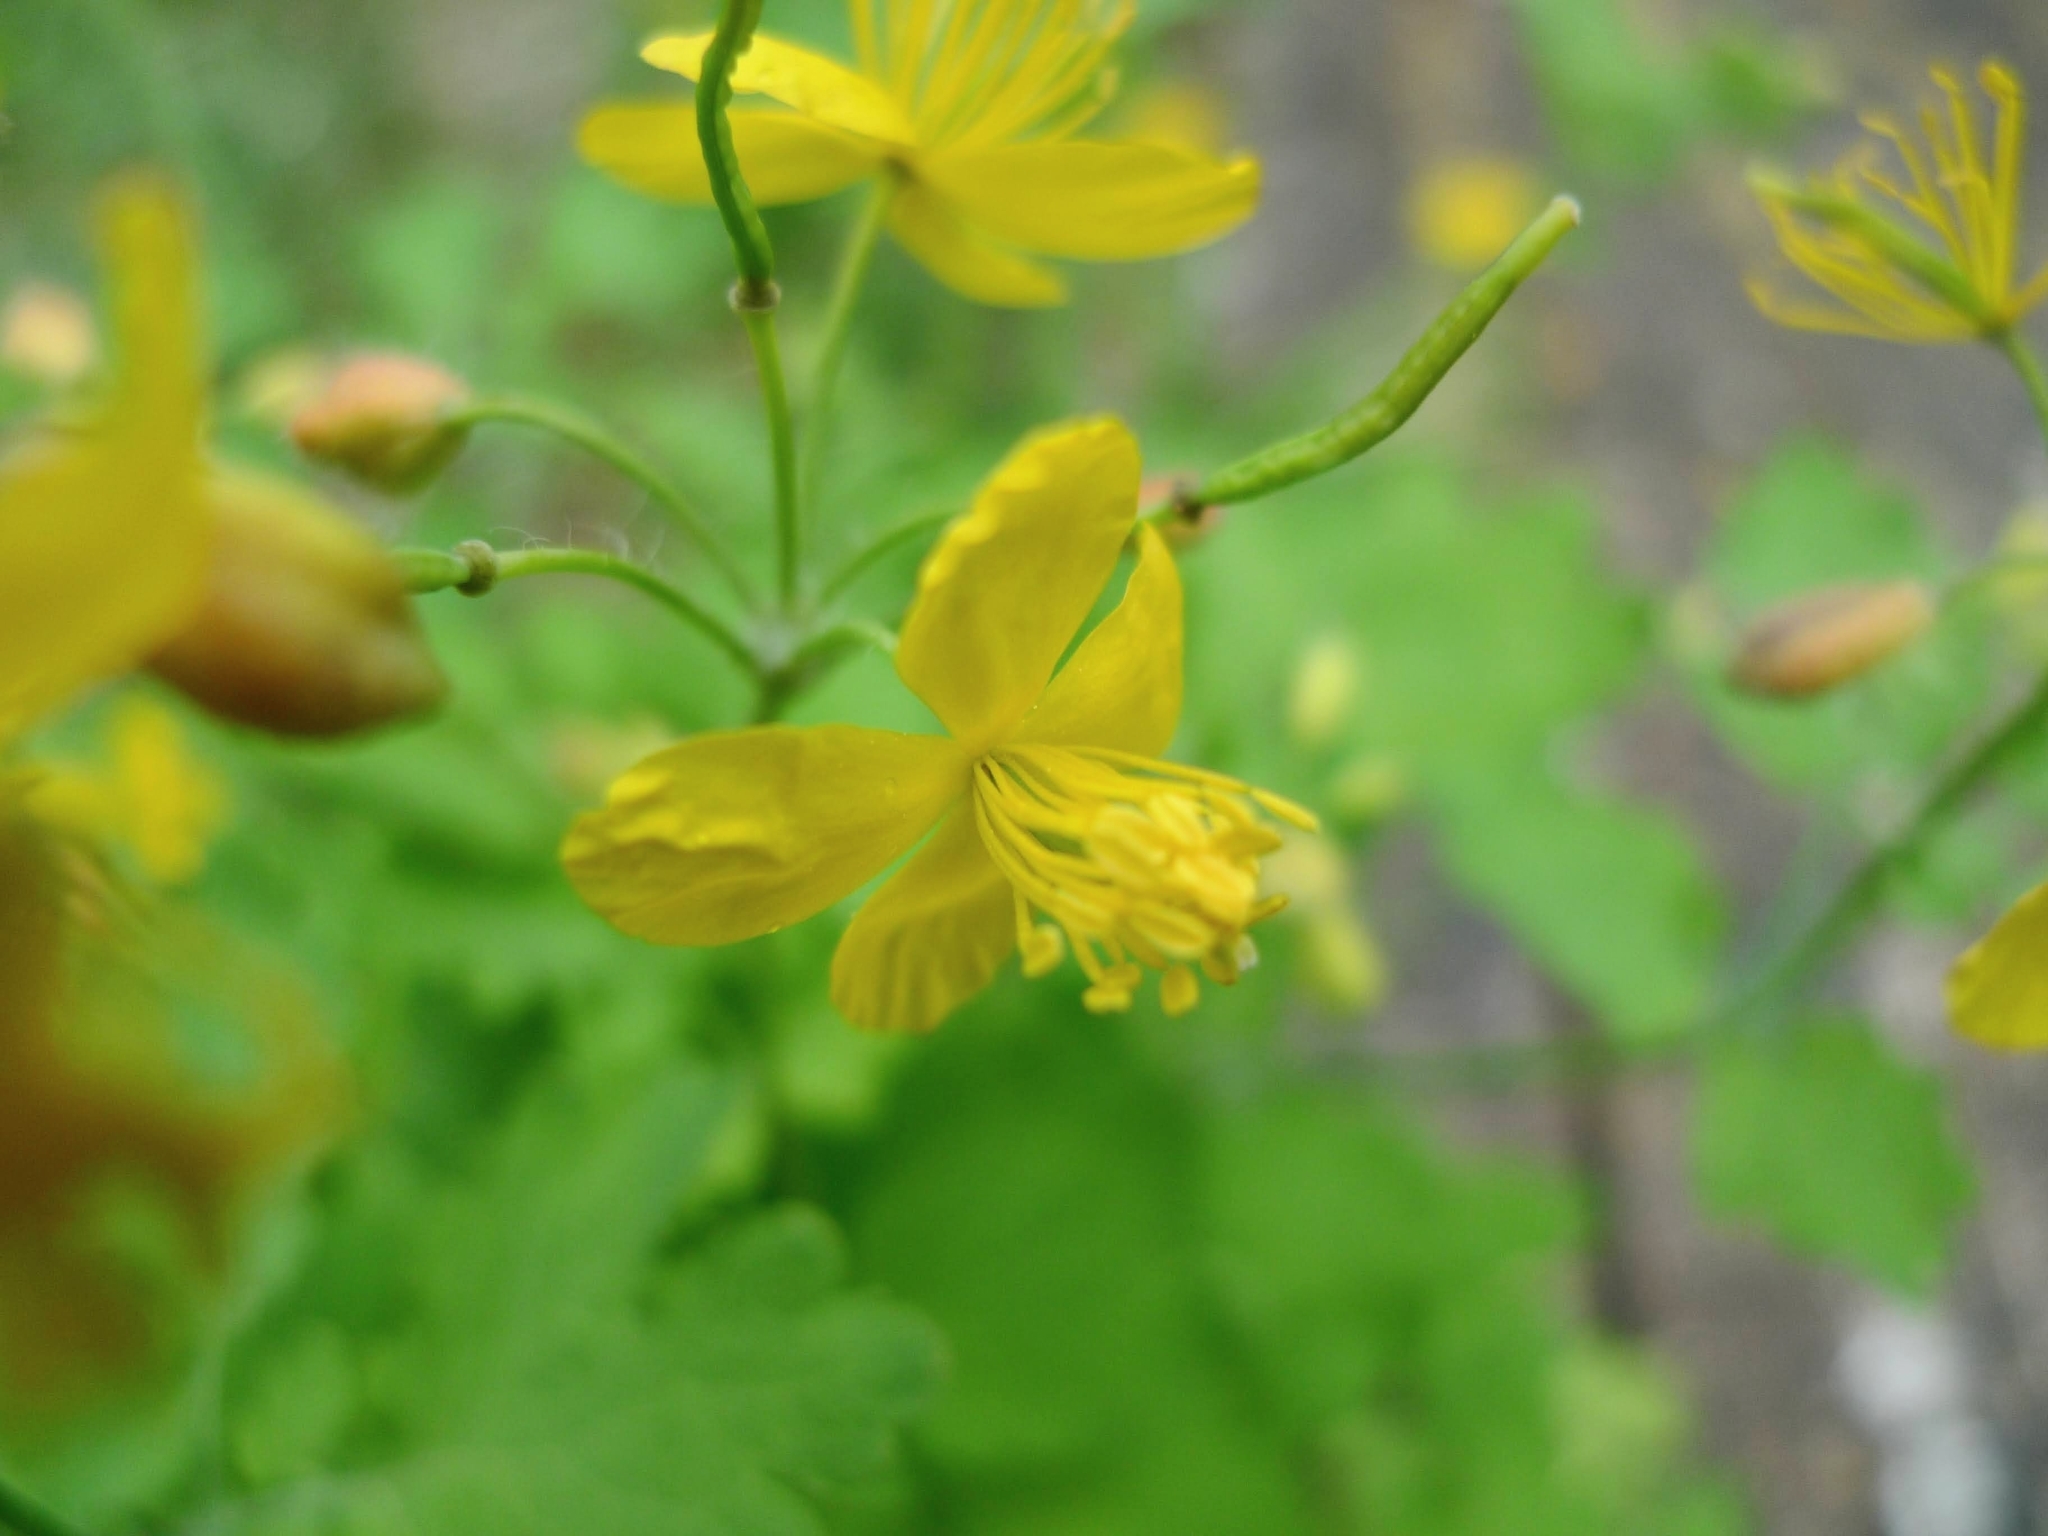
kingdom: Plantae
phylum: Tracheophyta
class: Magnoliopsida
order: Ranunculales
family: Papaveraceae
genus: Chelidonium
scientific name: Chelidonium majus
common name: Greater celandine
